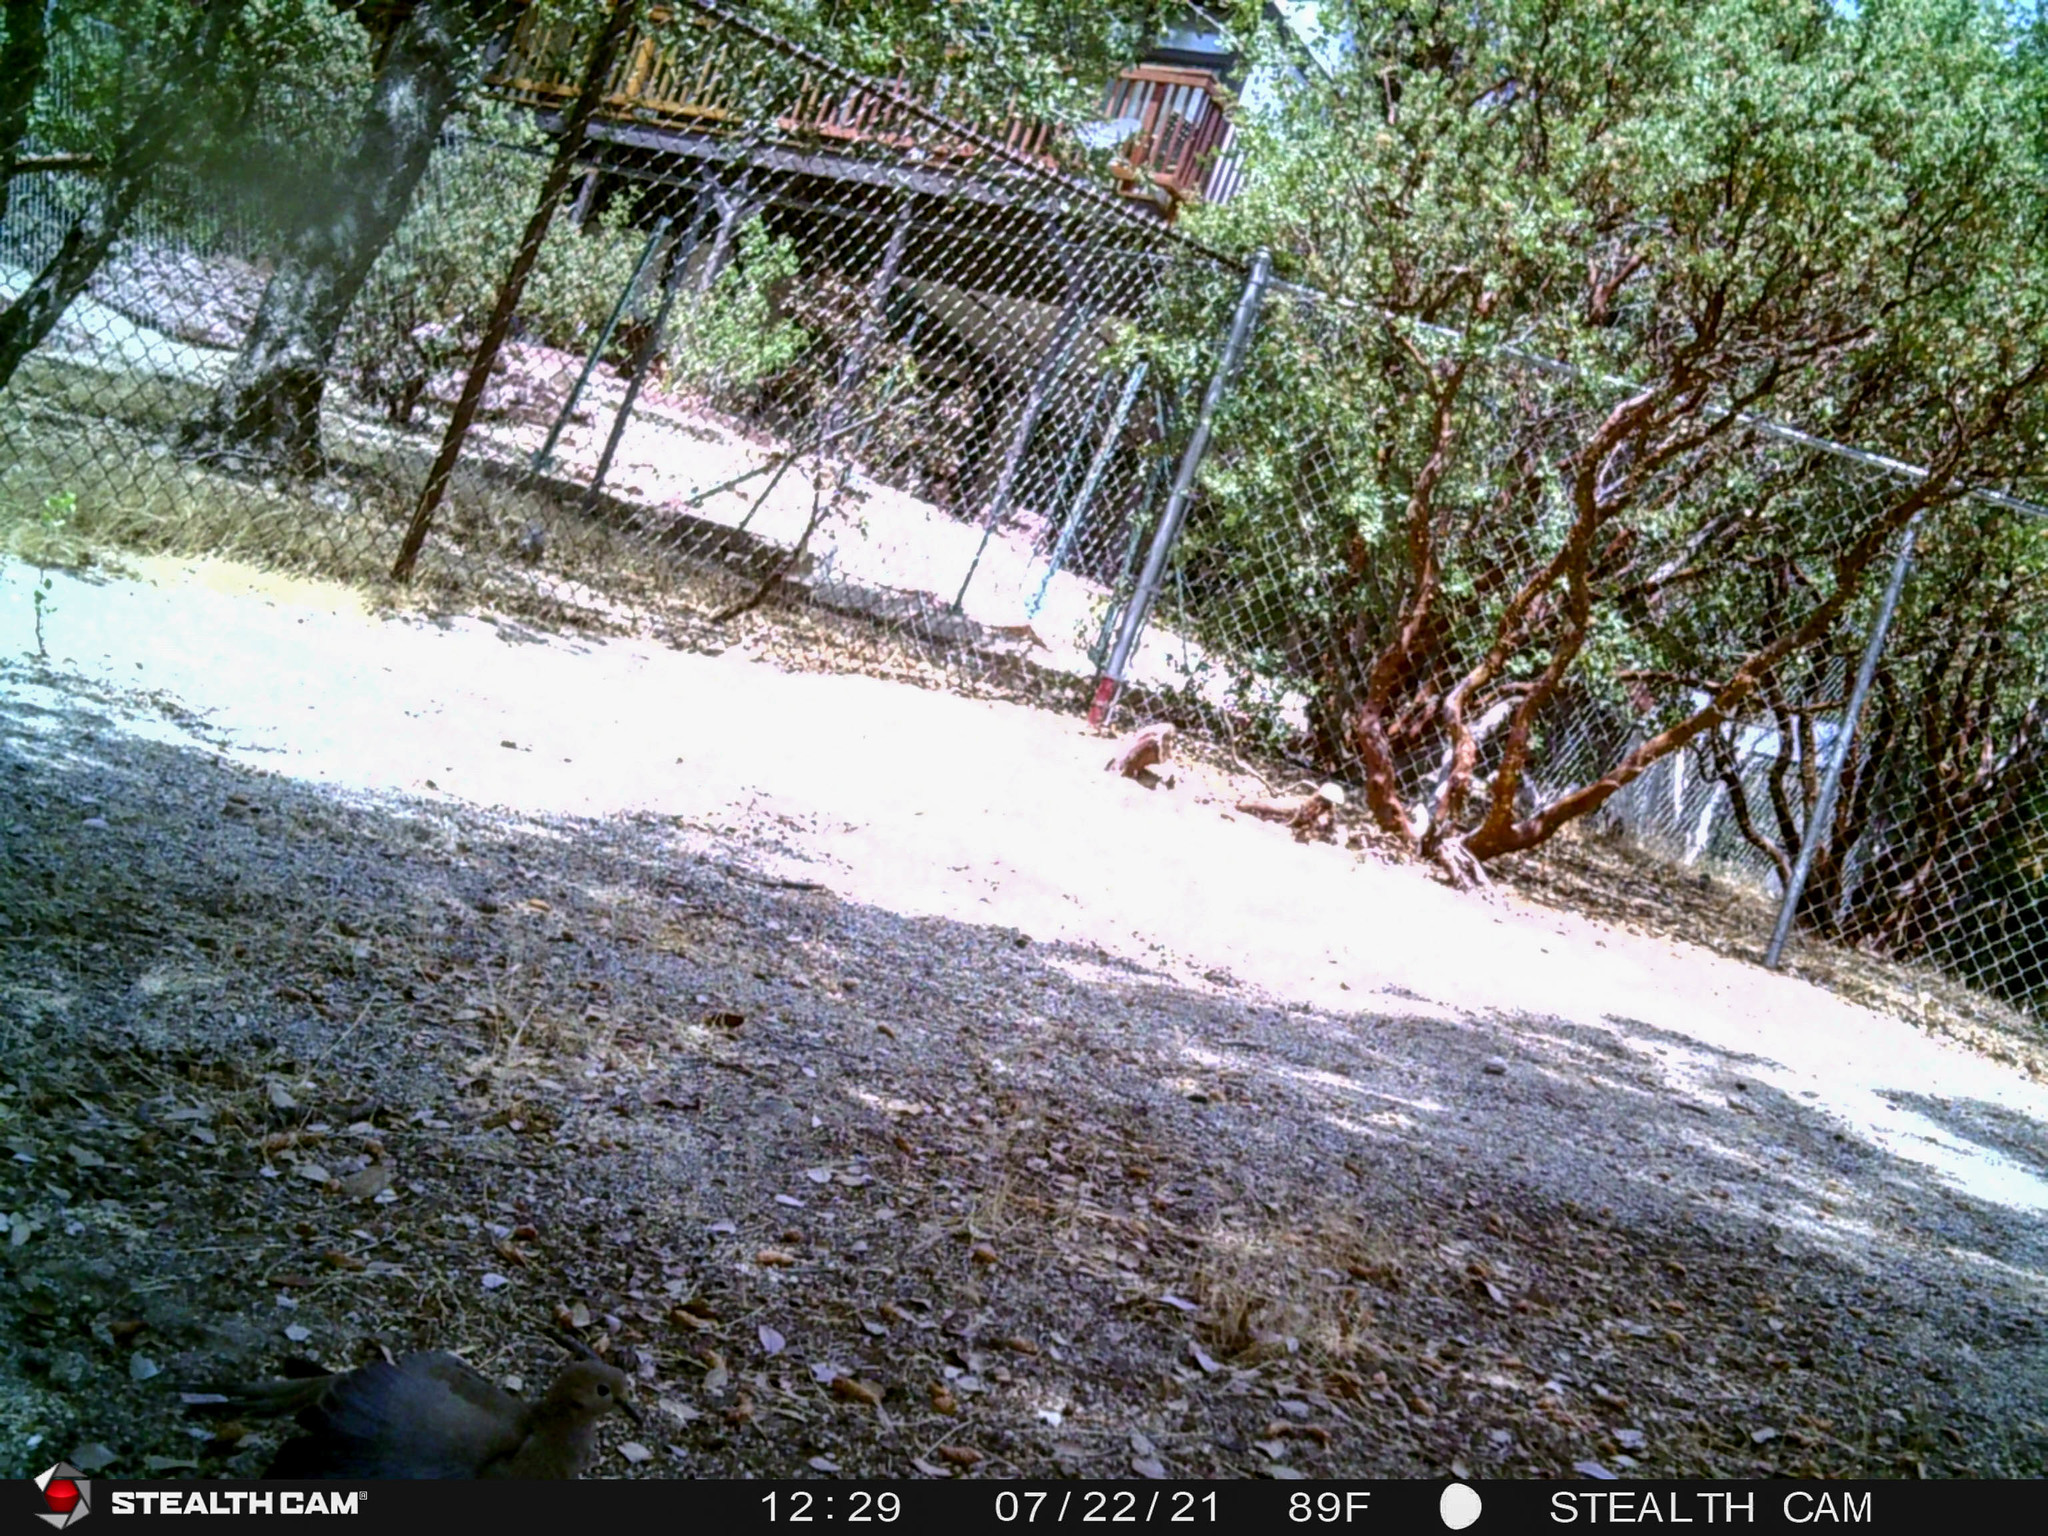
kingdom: Animalia
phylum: Chordata
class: Aves
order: Columbiformes
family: Columbidae
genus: Zenaida
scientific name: Zenaida macroura
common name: Mourning dove
